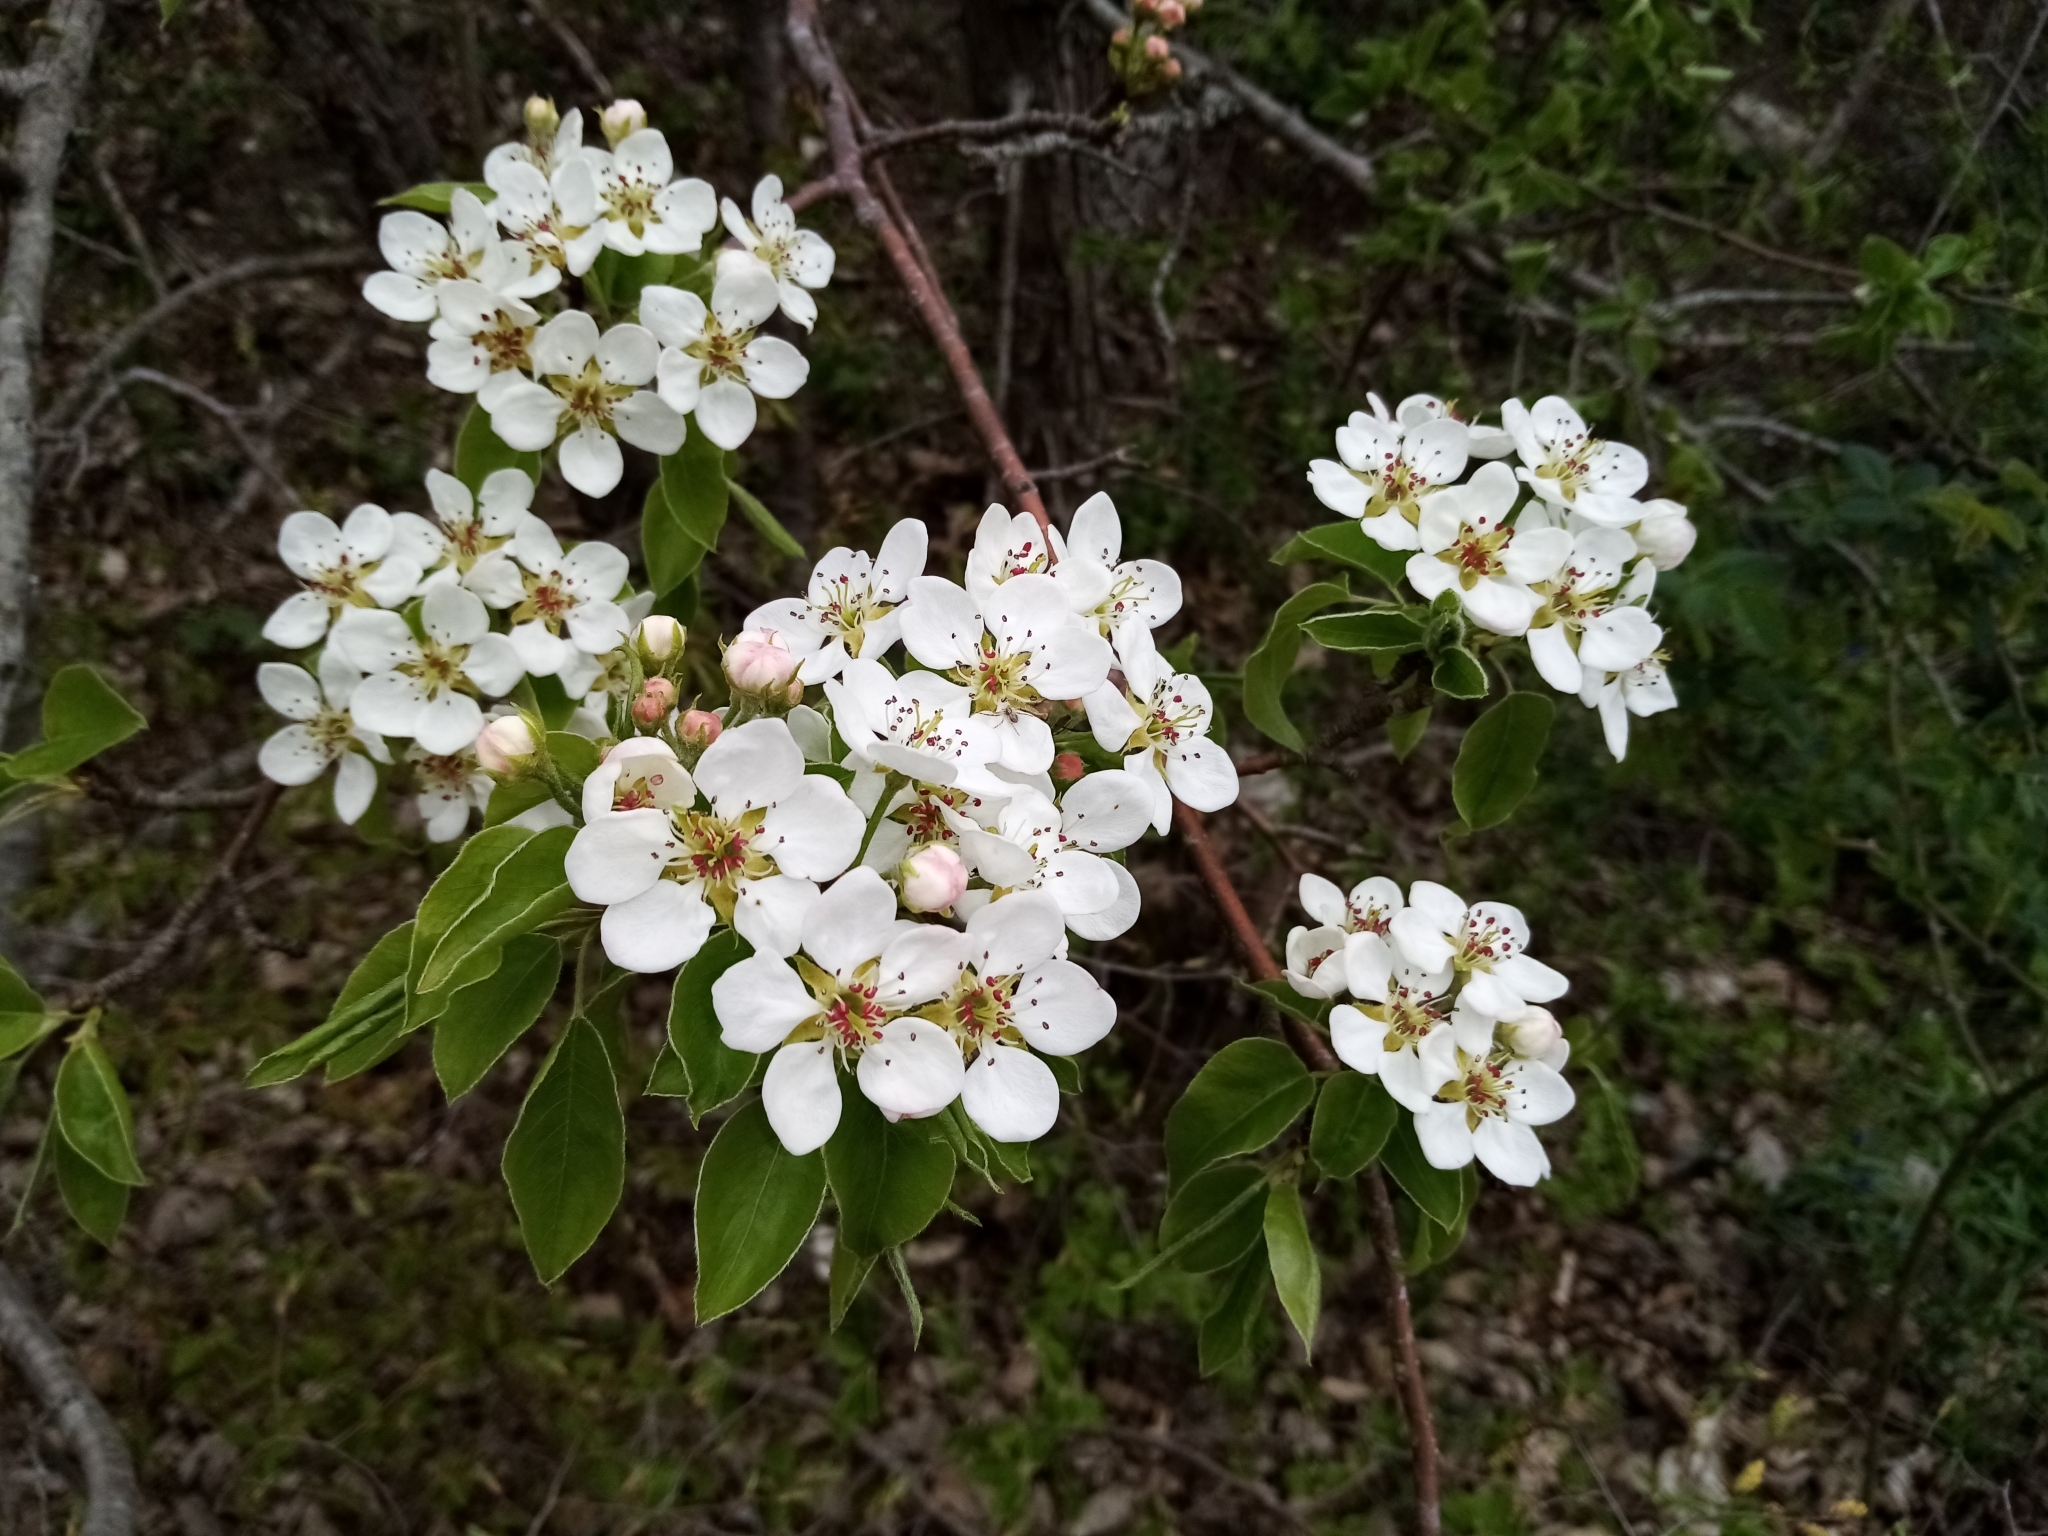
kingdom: Plantae
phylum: Tracheophyta
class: Magnoliopsida
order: Rosales
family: Rosaceae
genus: Pyrus
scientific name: Pyrus communis
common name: Pear
